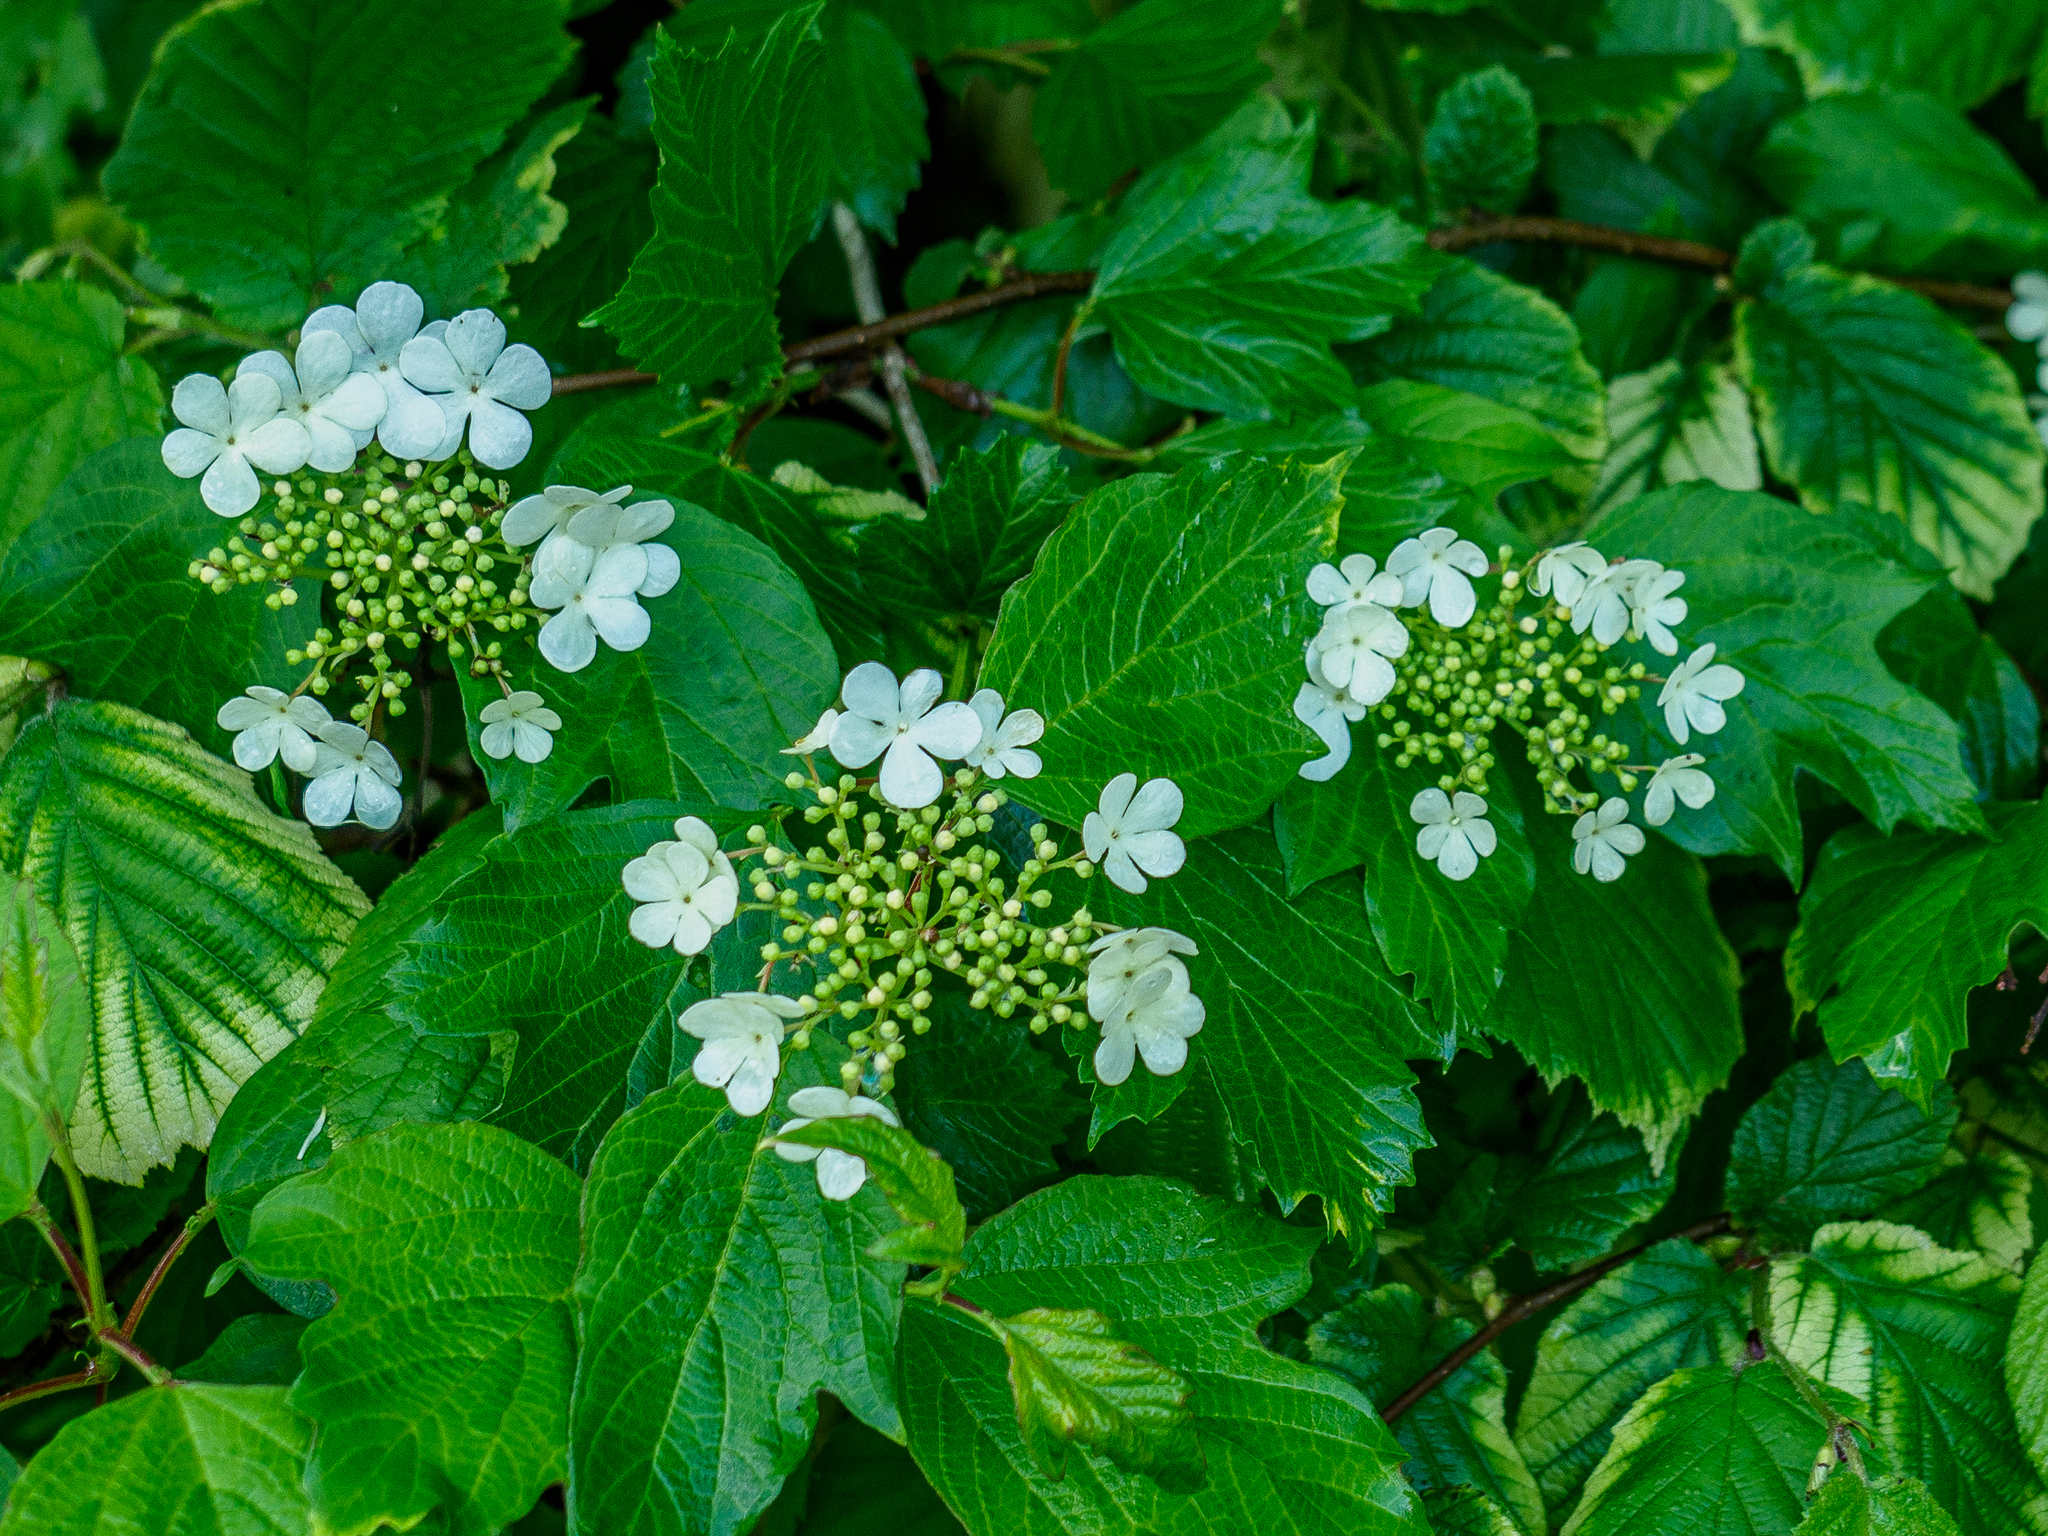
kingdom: Plantae
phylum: Tracheophyta
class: Magnoliopsida
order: Dipsacales
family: Viburnaceae
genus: Viburnum
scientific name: Viburnum opulus
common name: Guelder-rose
